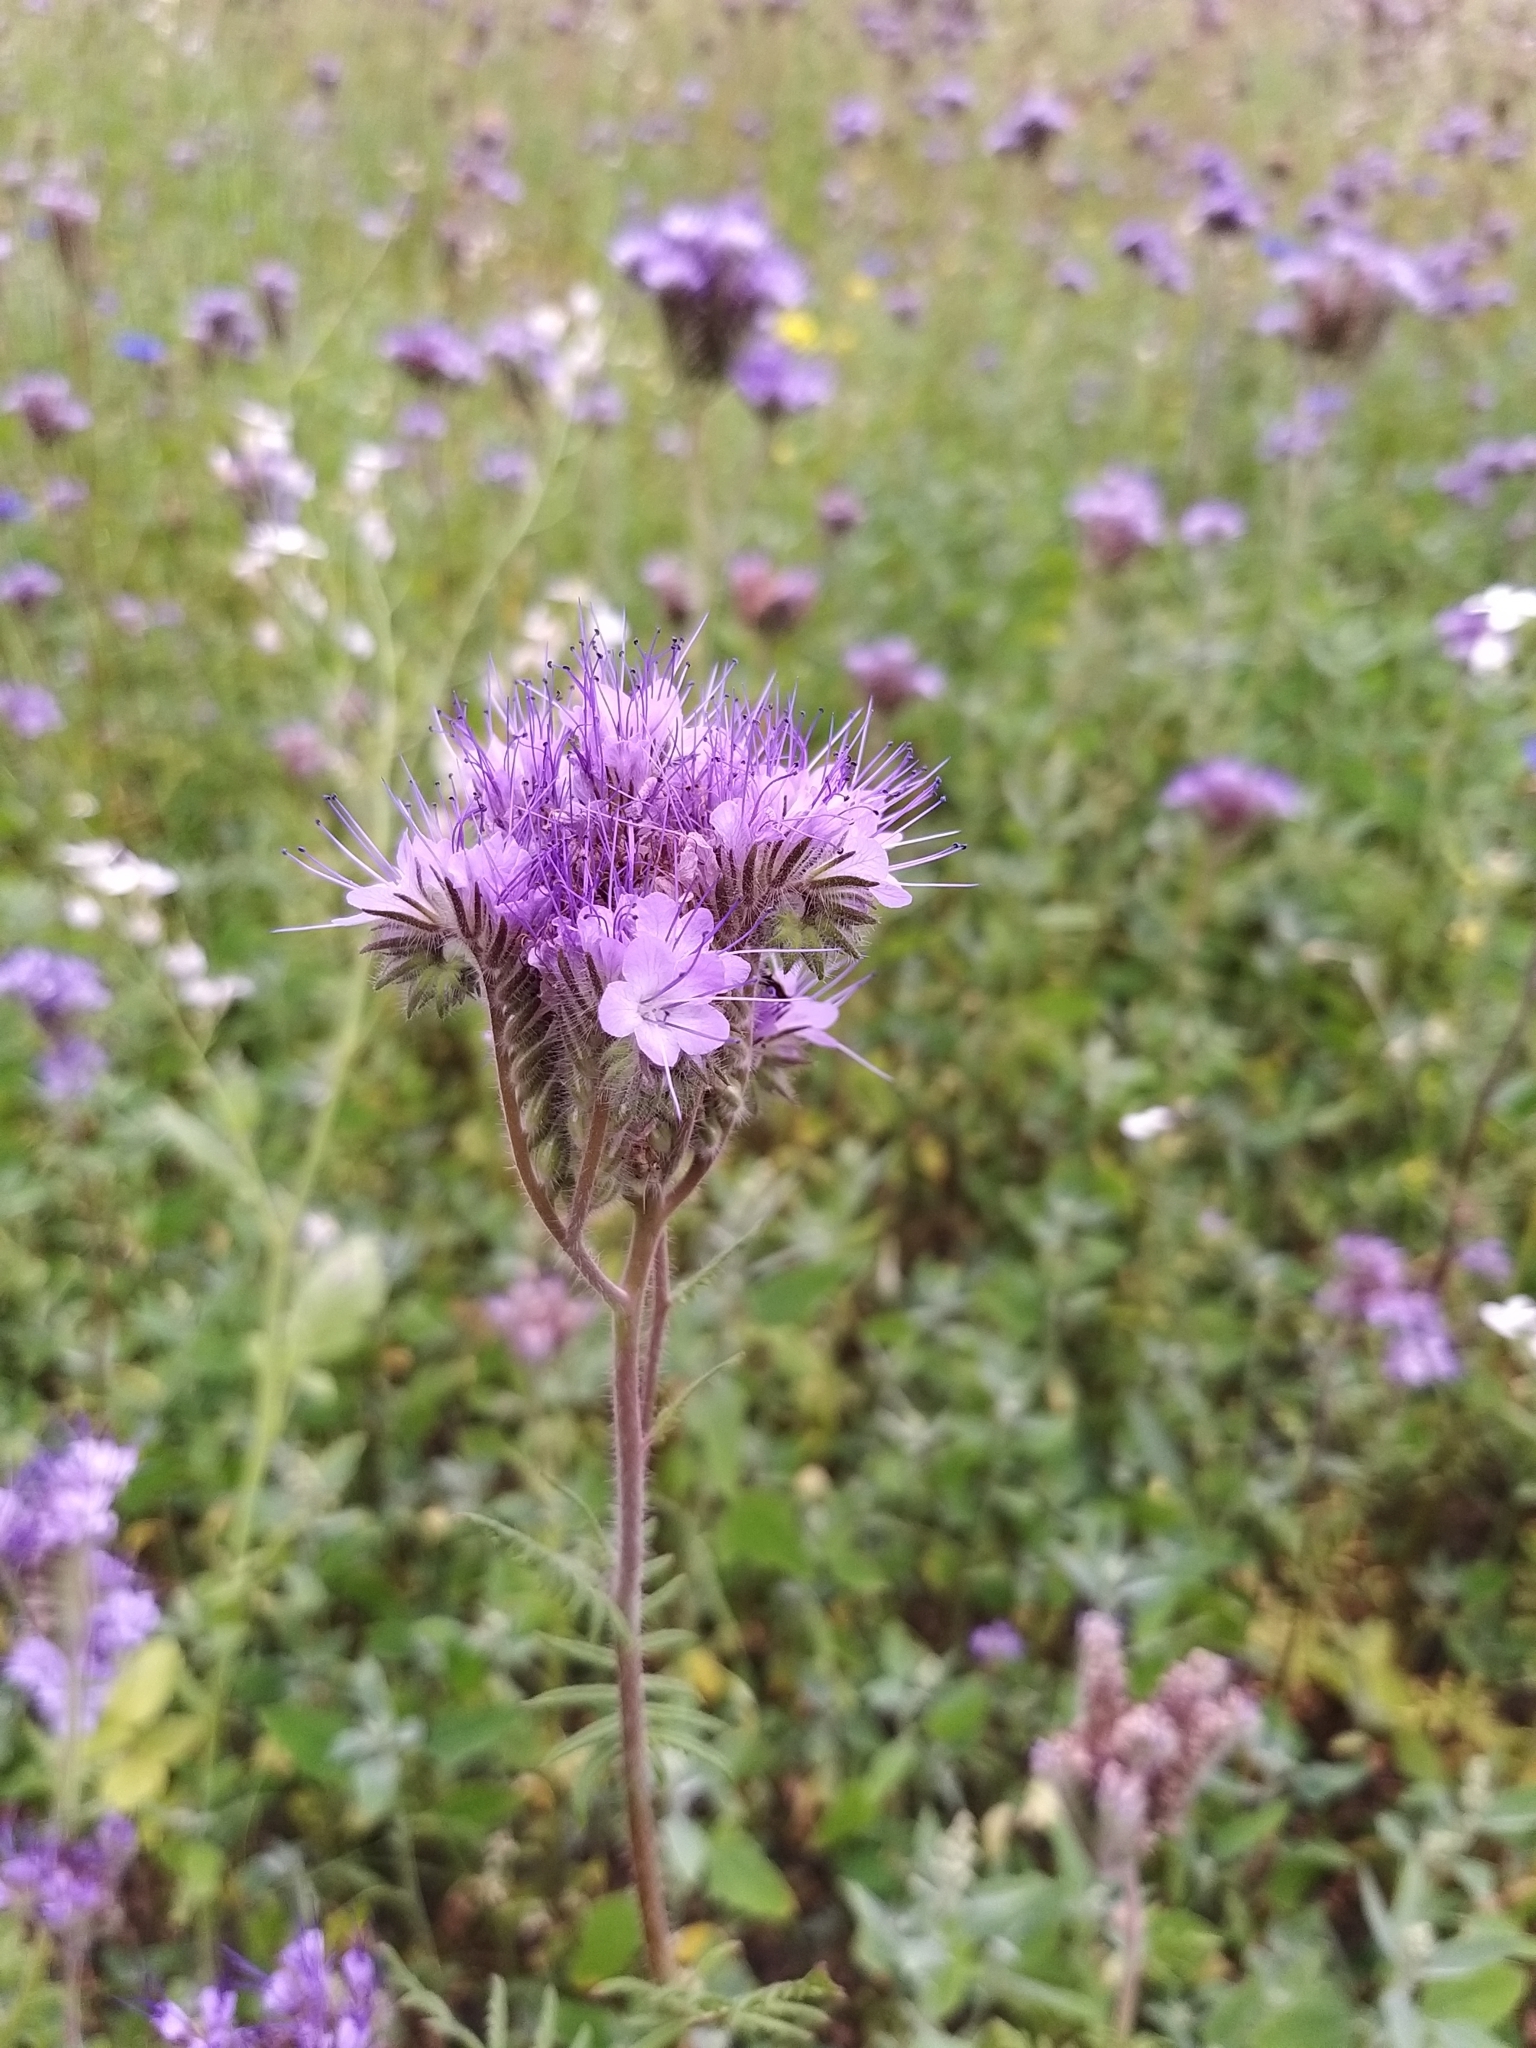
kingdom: Plantae
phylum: Tracheophyta
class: Magnoliopsida
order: Boraginales
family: Hydrophyllaceae
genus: Phacelia
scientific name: Phacelia tanacetifolia
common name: Phacelia
